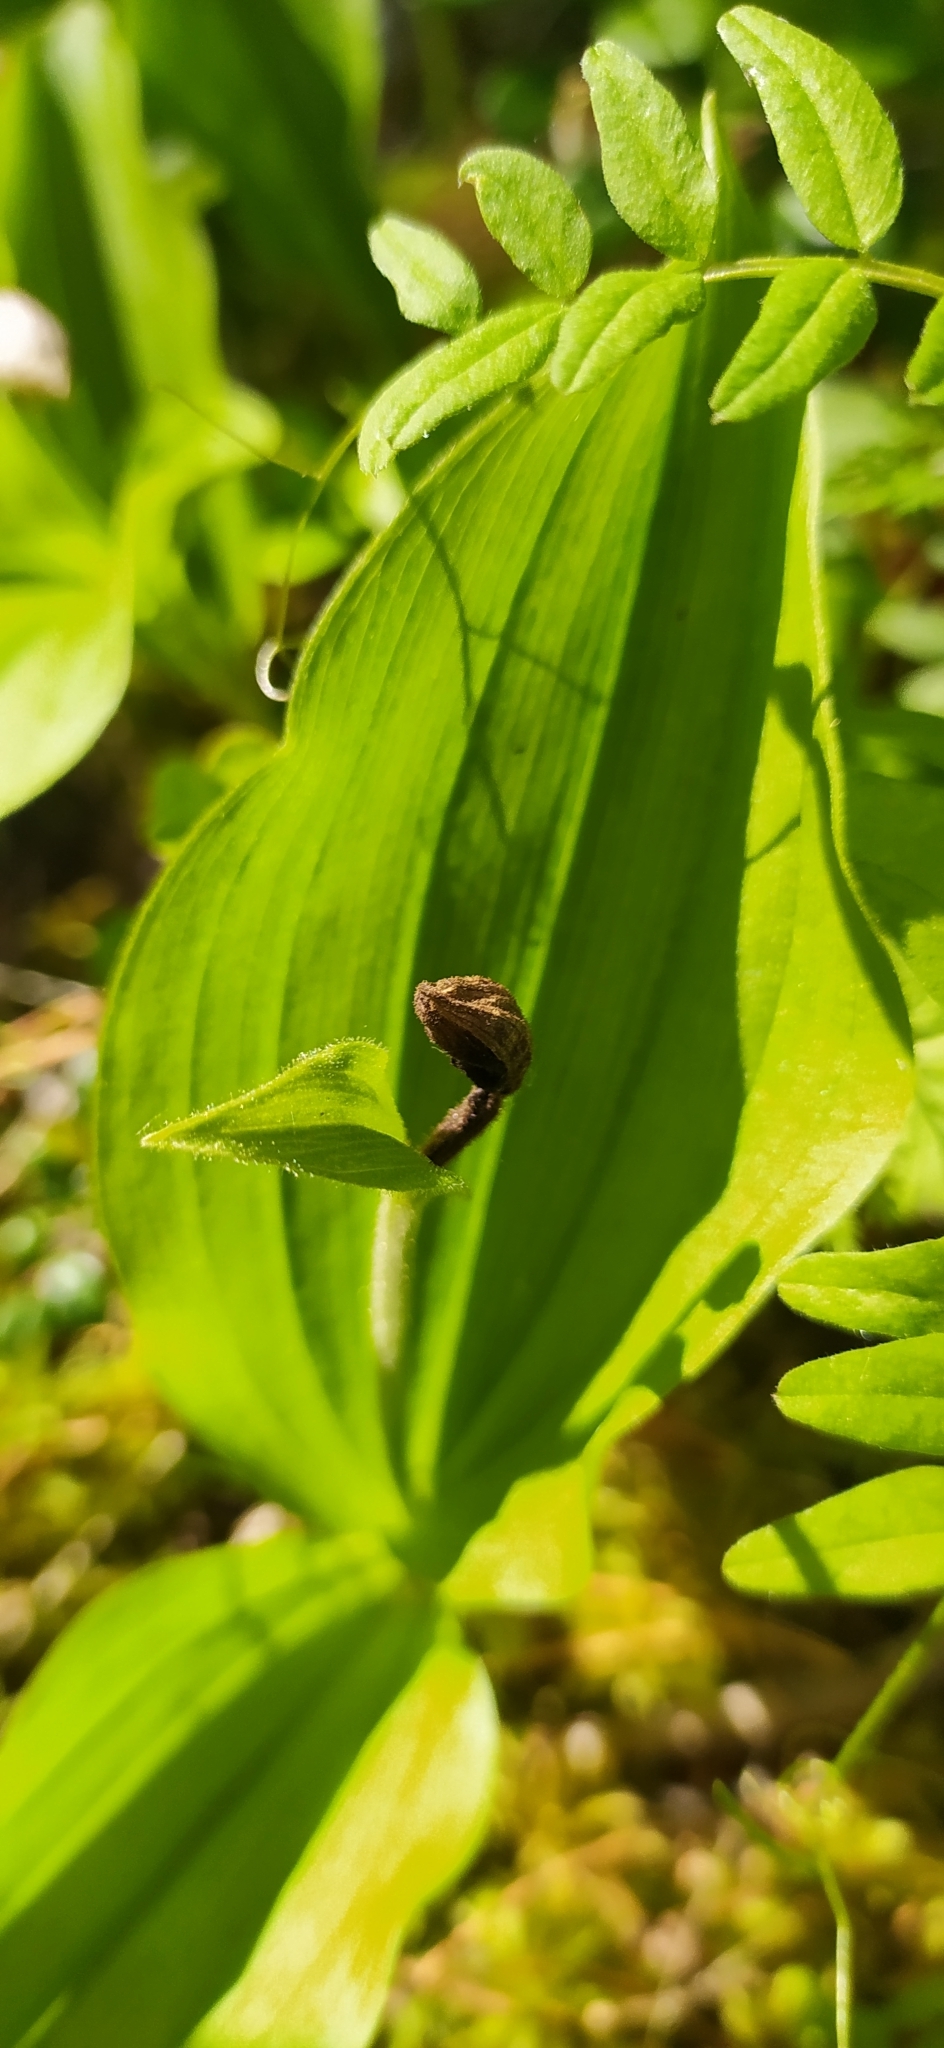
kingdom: Plantae
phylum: Tracheophyta
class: Liliopsida
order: Asparagales
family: Orchidaceae
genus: Cypripedium
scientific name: Cypripedium guttatum
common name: Pink lady slipper
